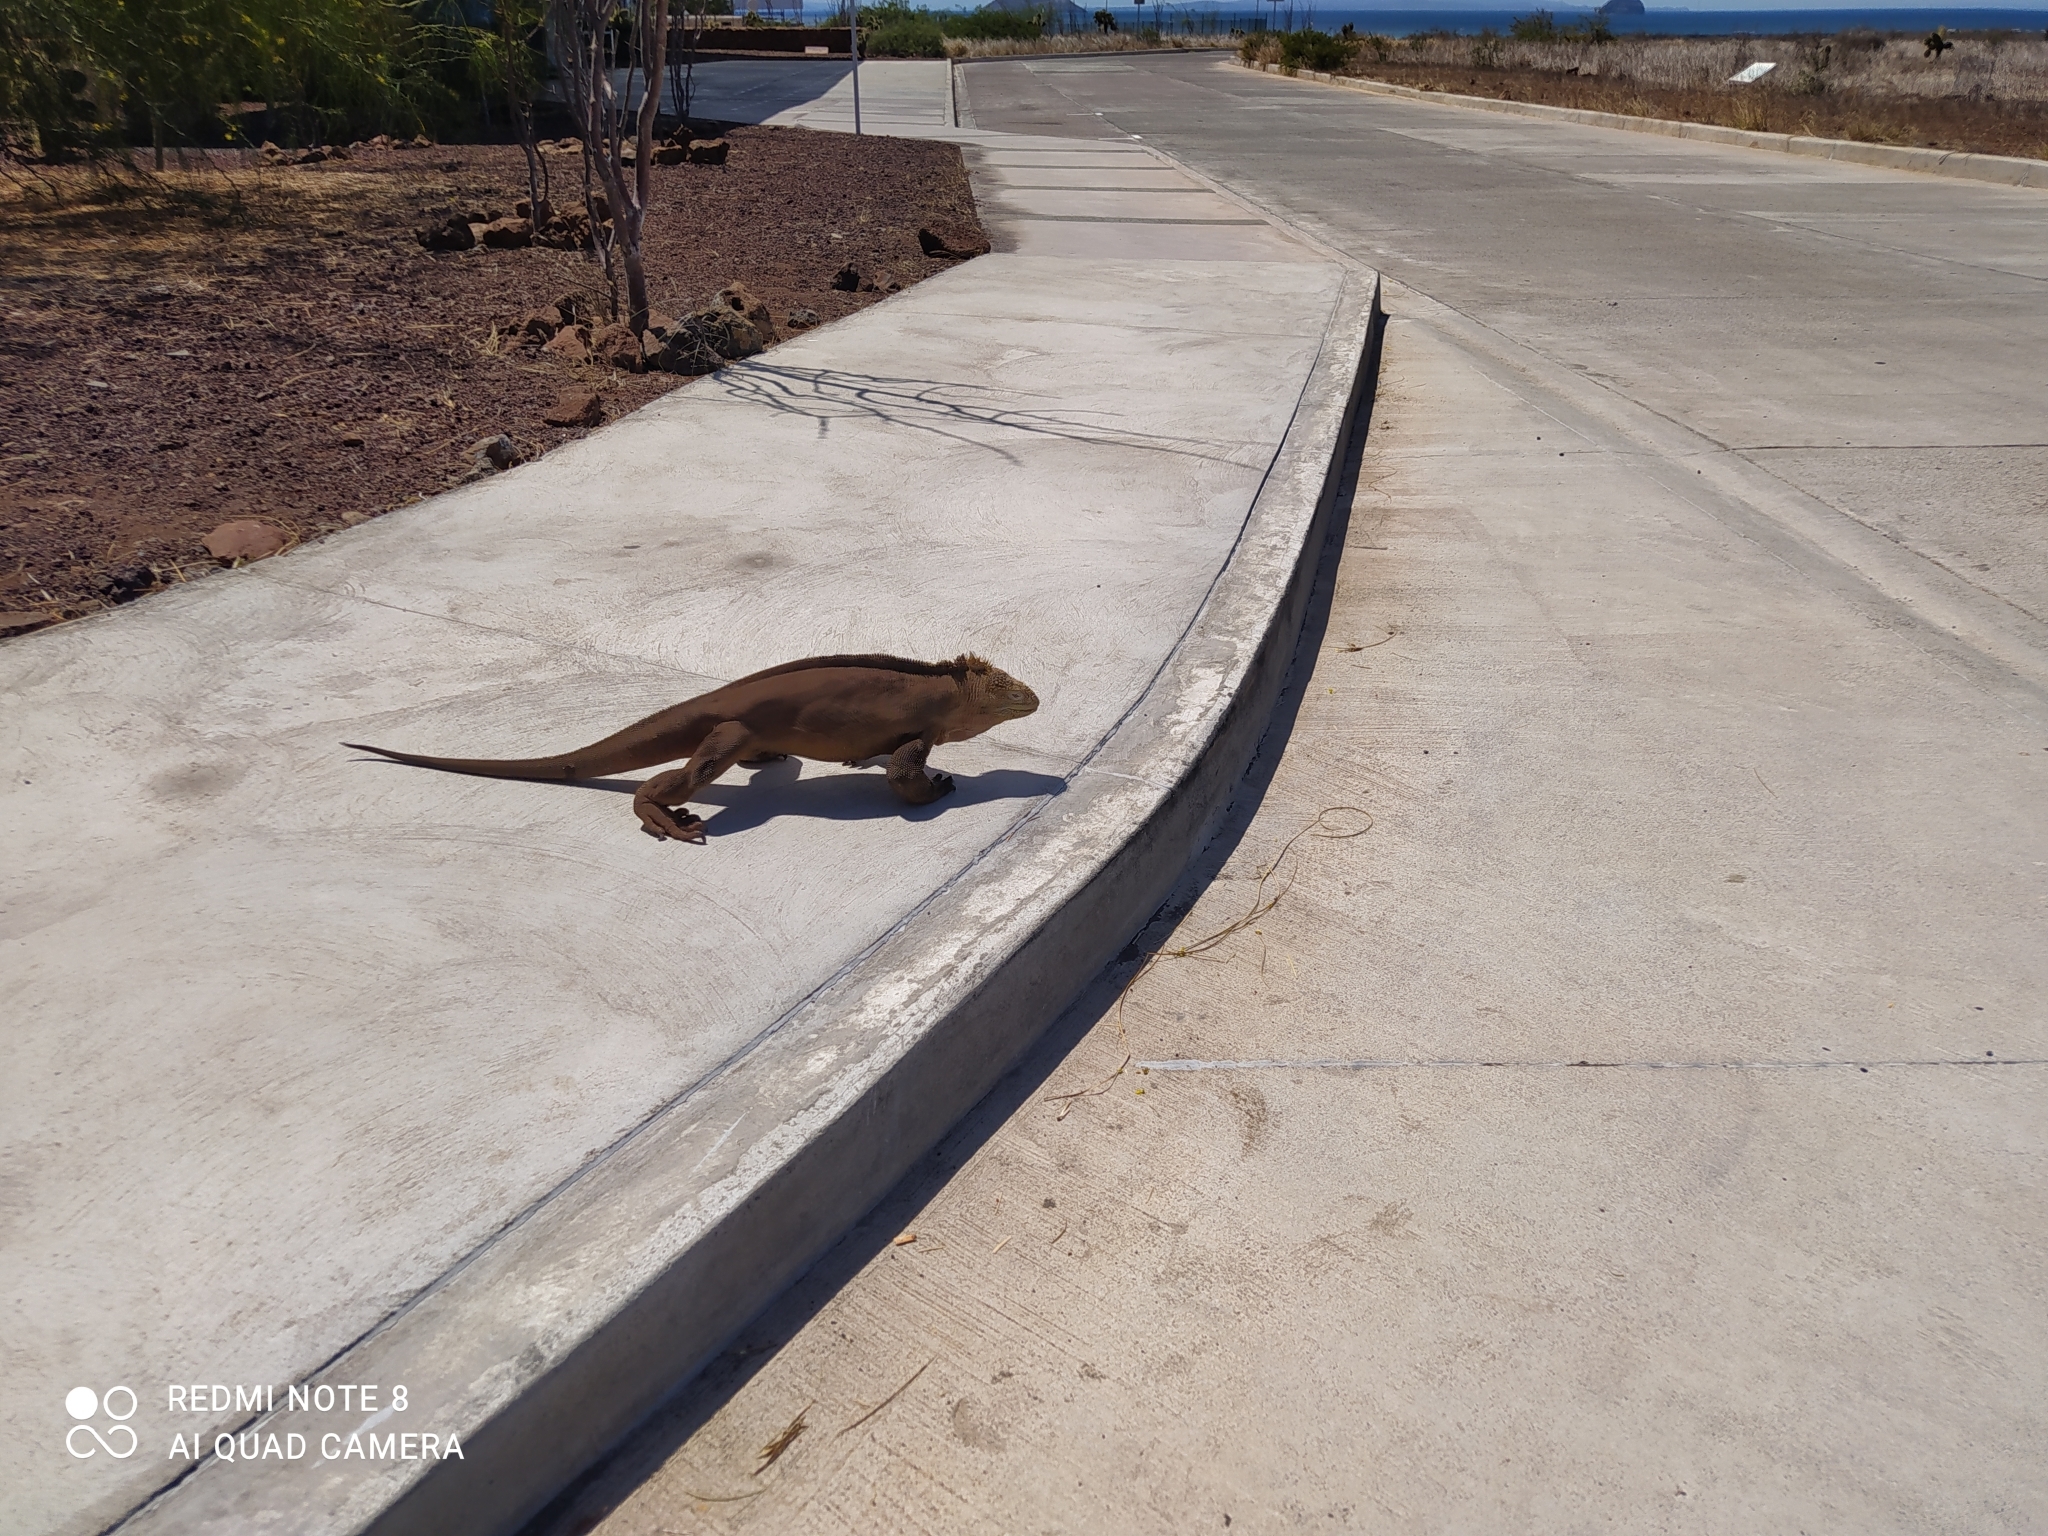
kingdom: Animalia
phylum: Chordata
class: Squamata
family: Iguanidae
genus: Conolophus
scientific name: Conolophus subcristatus
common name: Galapagos land iguana
